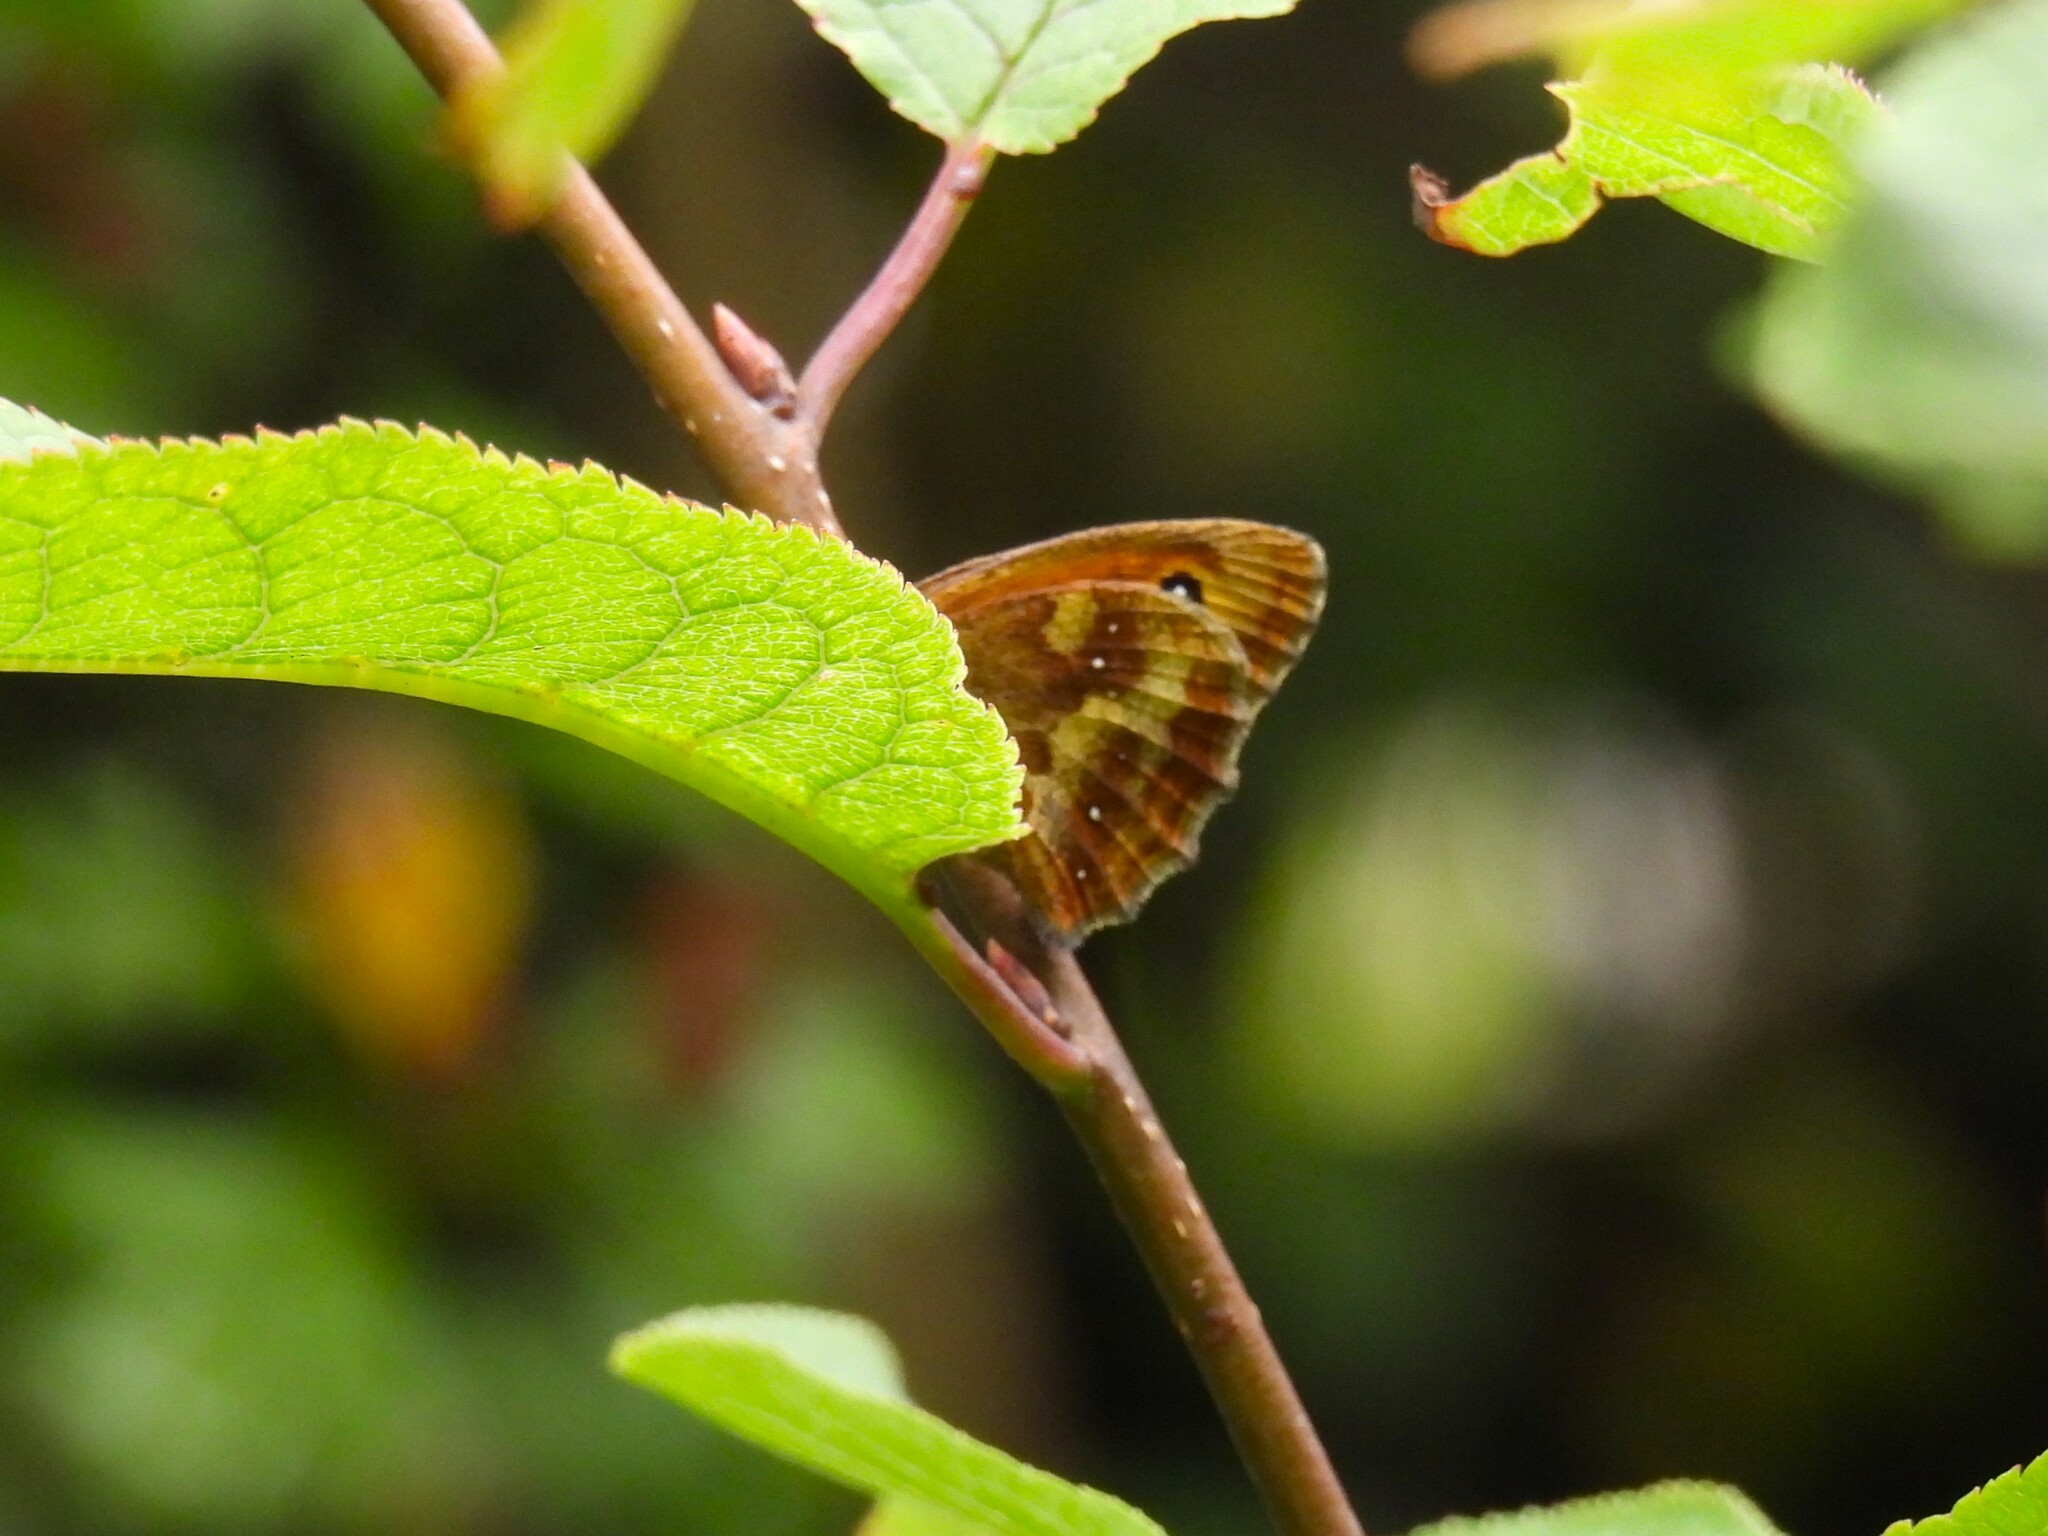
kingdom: Animalia
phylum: Arthropoda
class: Insecta
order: Lepidoptera
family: Nymphalidae
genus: Pyronia
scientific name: Pyronia tithonus
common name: Gatekeeper
